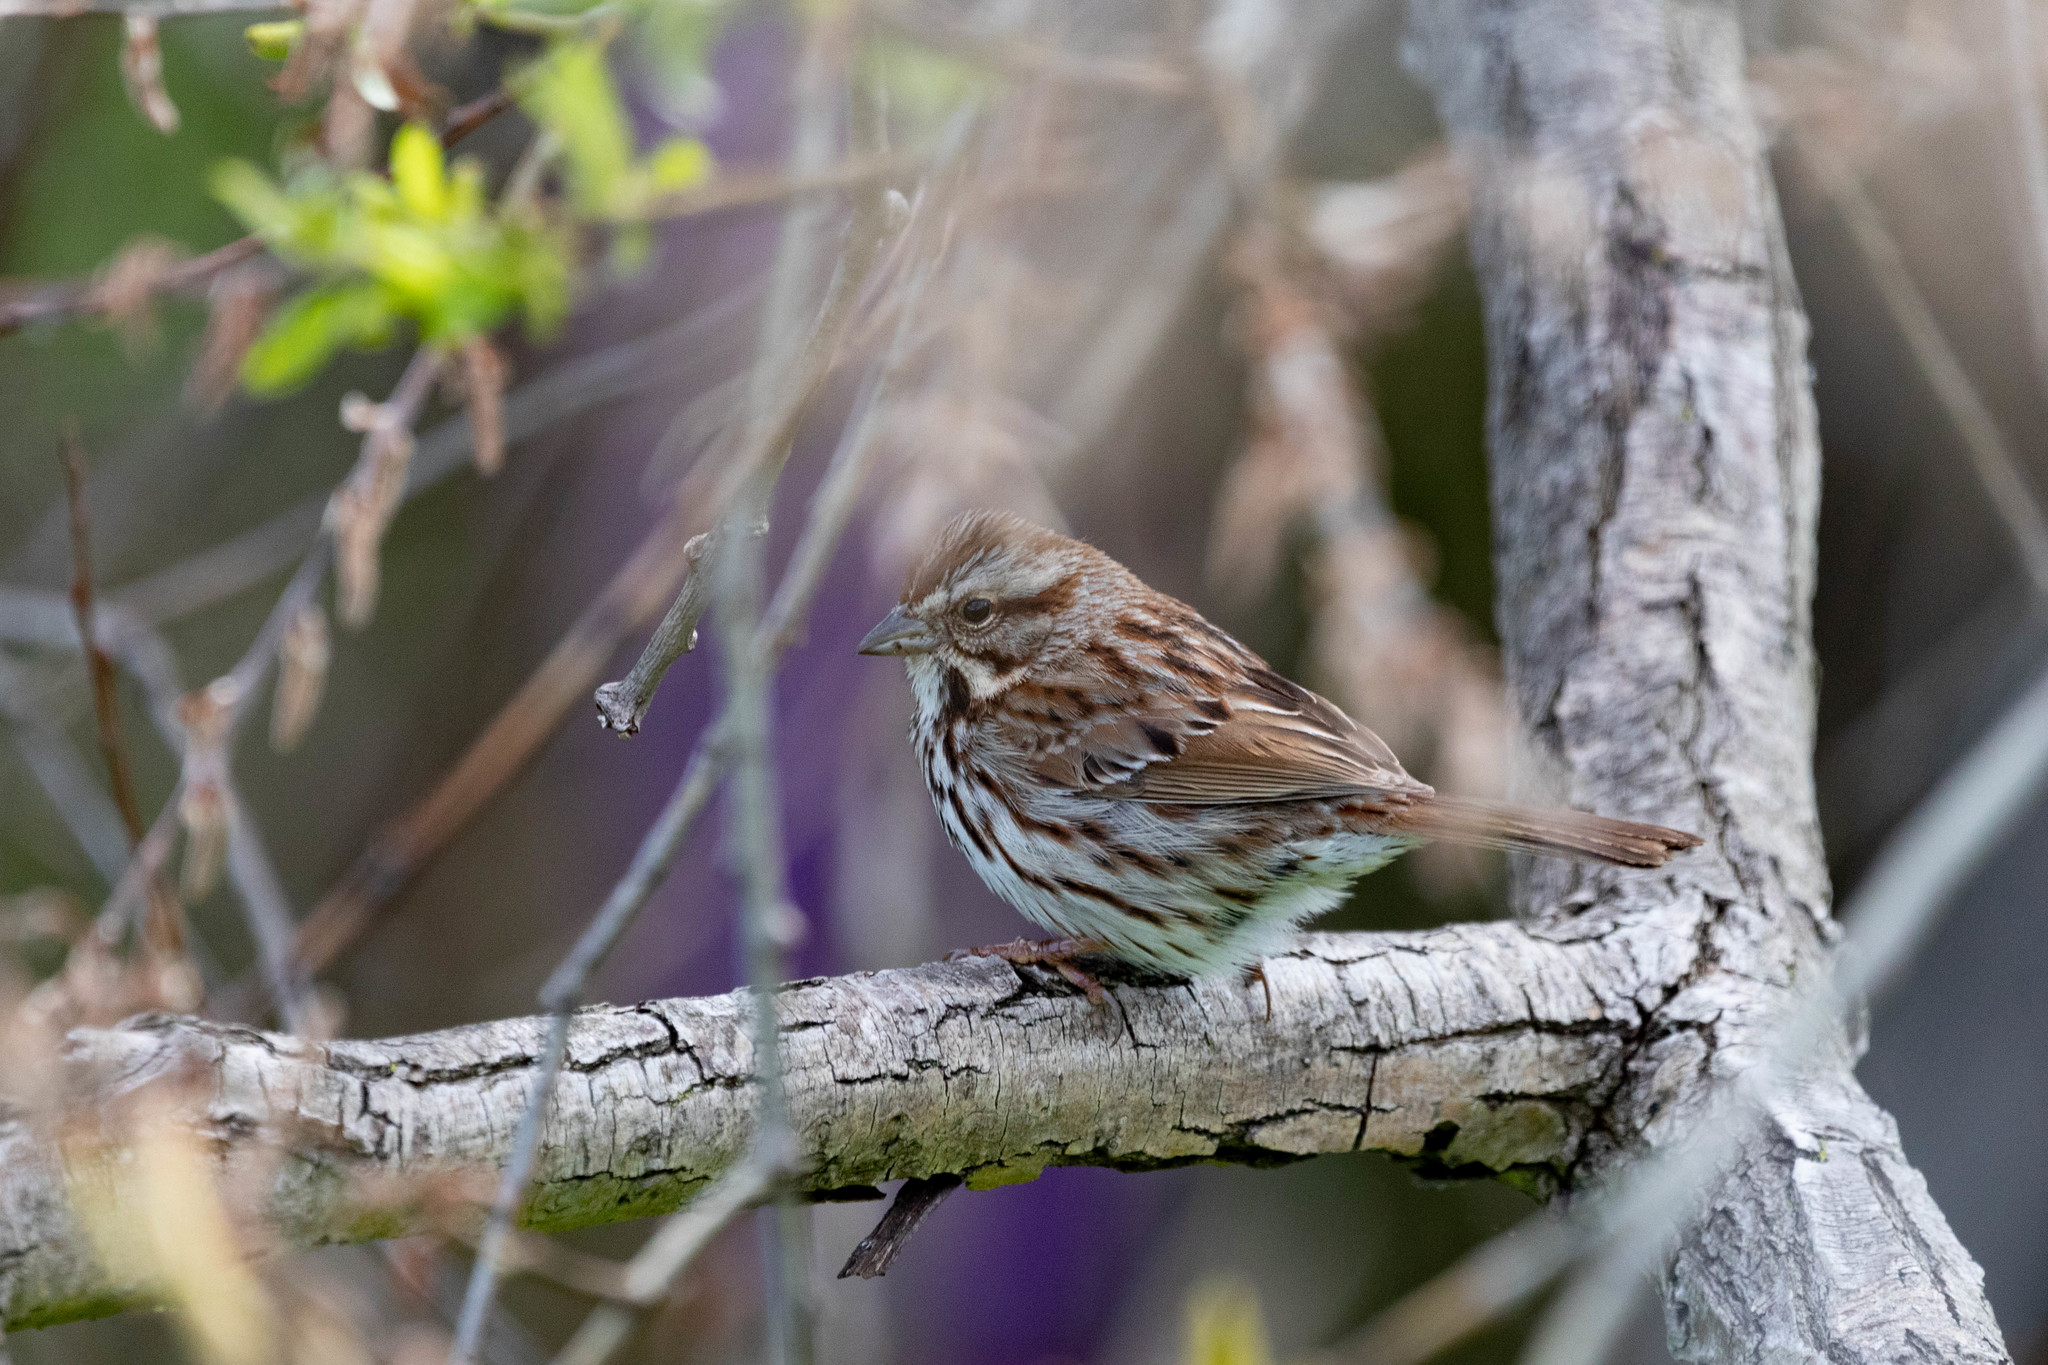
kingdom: Animalia
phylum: Chordata
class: Aves
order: Passeriformes
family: Passerellidae
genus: Melospiza
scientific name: Melospiza melodia
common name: Song sparrow
